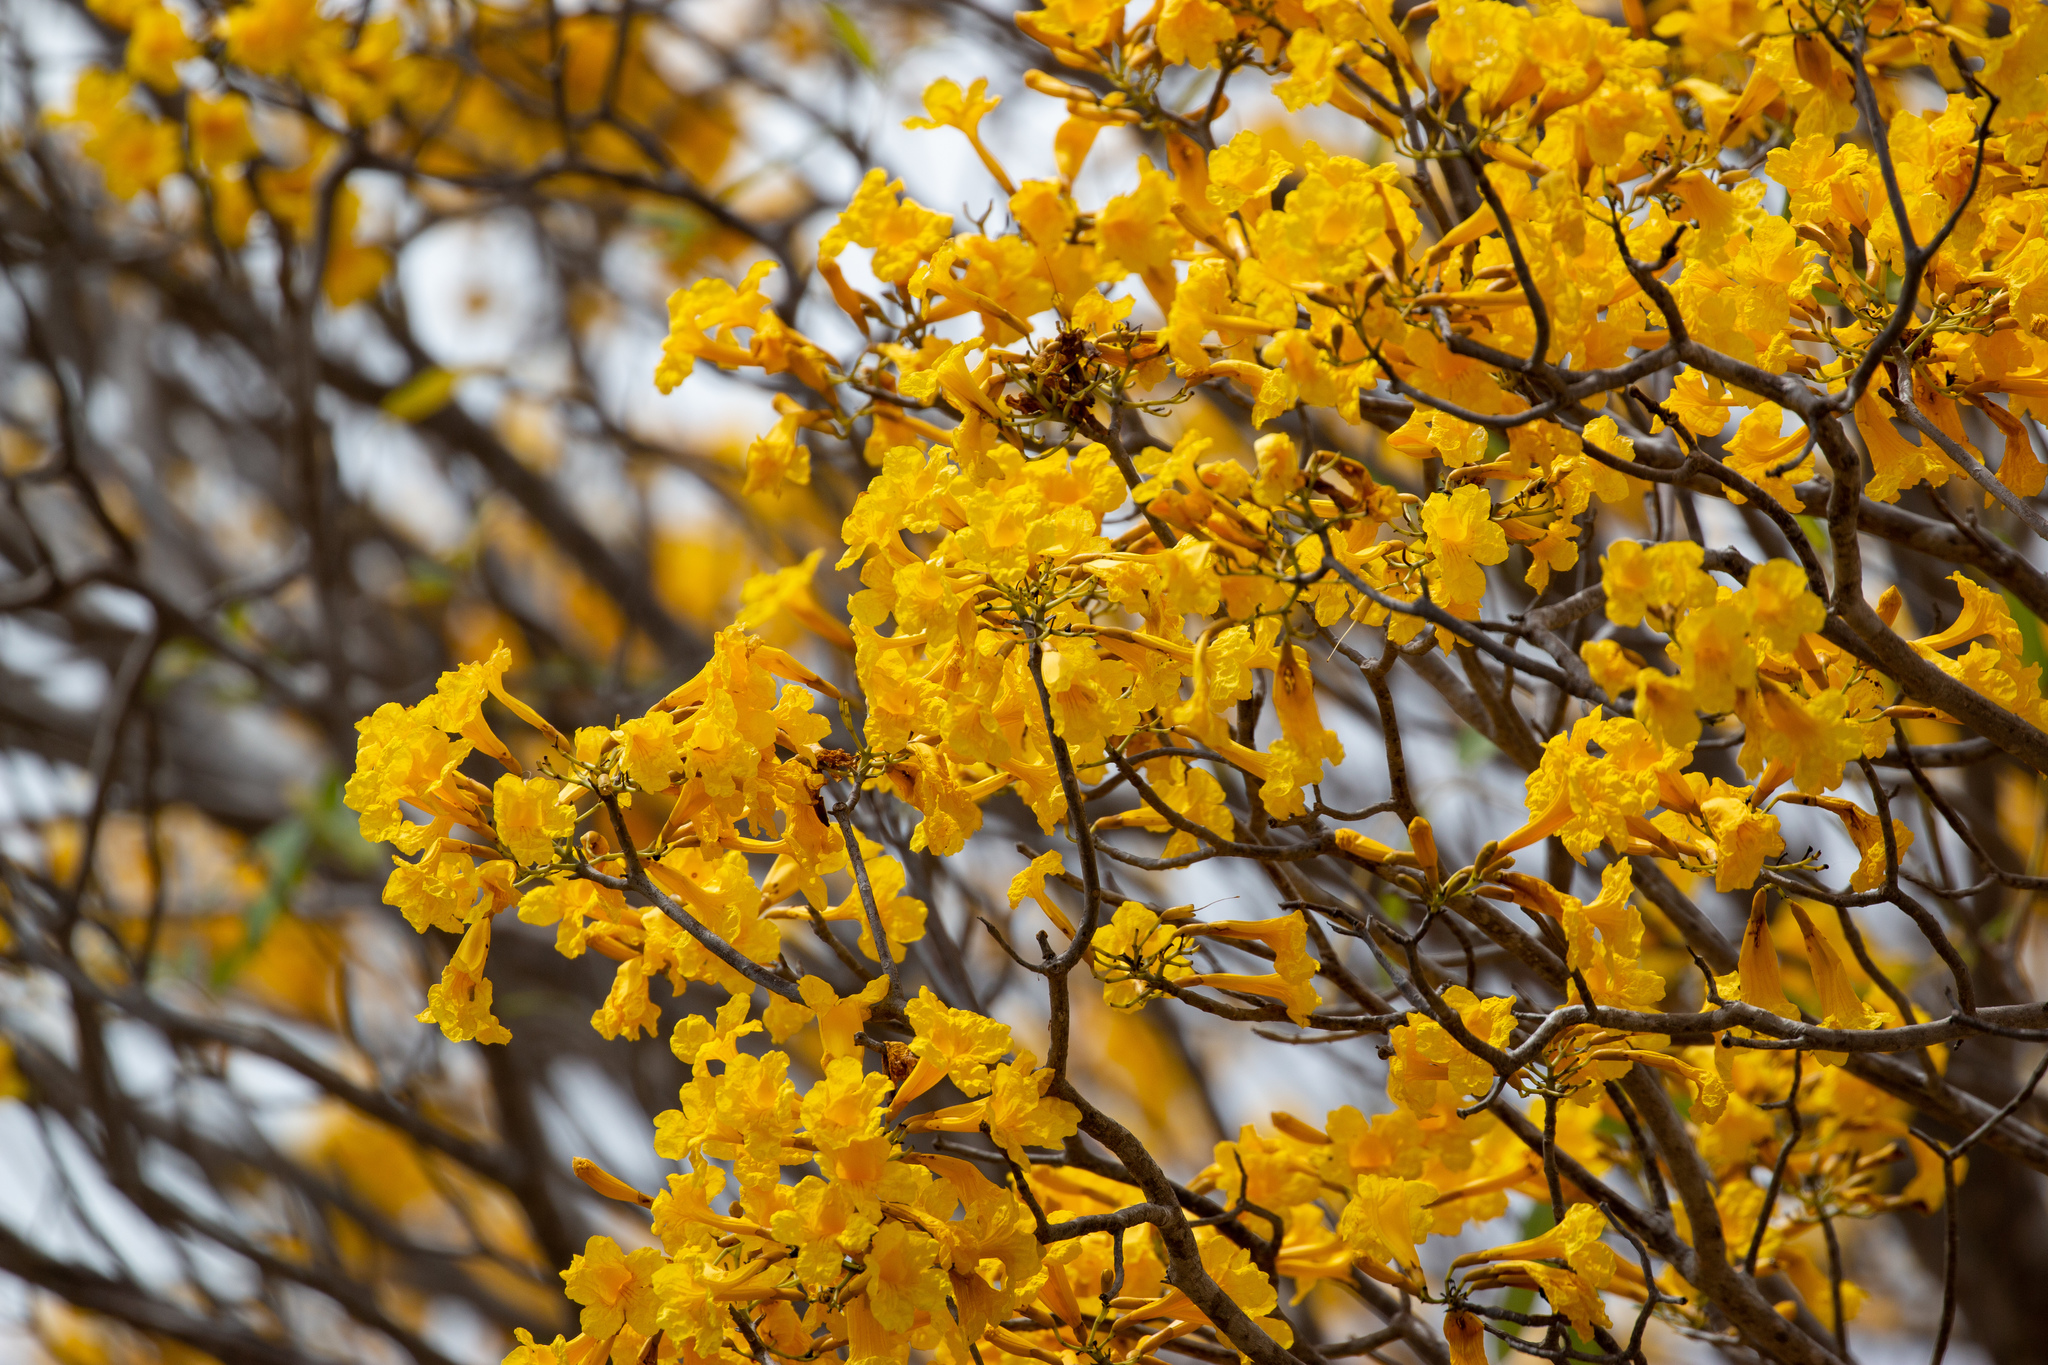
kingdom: Plantae
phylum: Tracheophyta
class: Magnoliopsida
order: Lamiales
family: Bignoniaceae
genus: Tabebuia
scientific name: Tabebuia aurea
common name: Caribbean trumpet-tree
